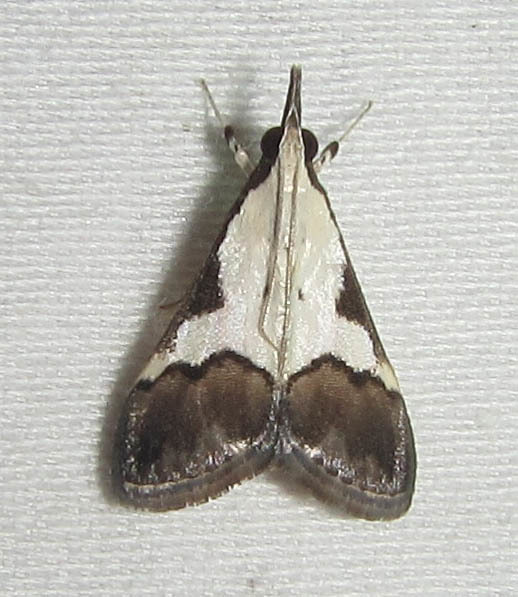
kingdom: Animalia
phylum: Arthropoda
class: Insecta
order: Lepidoptera
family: Crambidae
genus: Autocharis
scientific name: Autocharis jacobsalis
